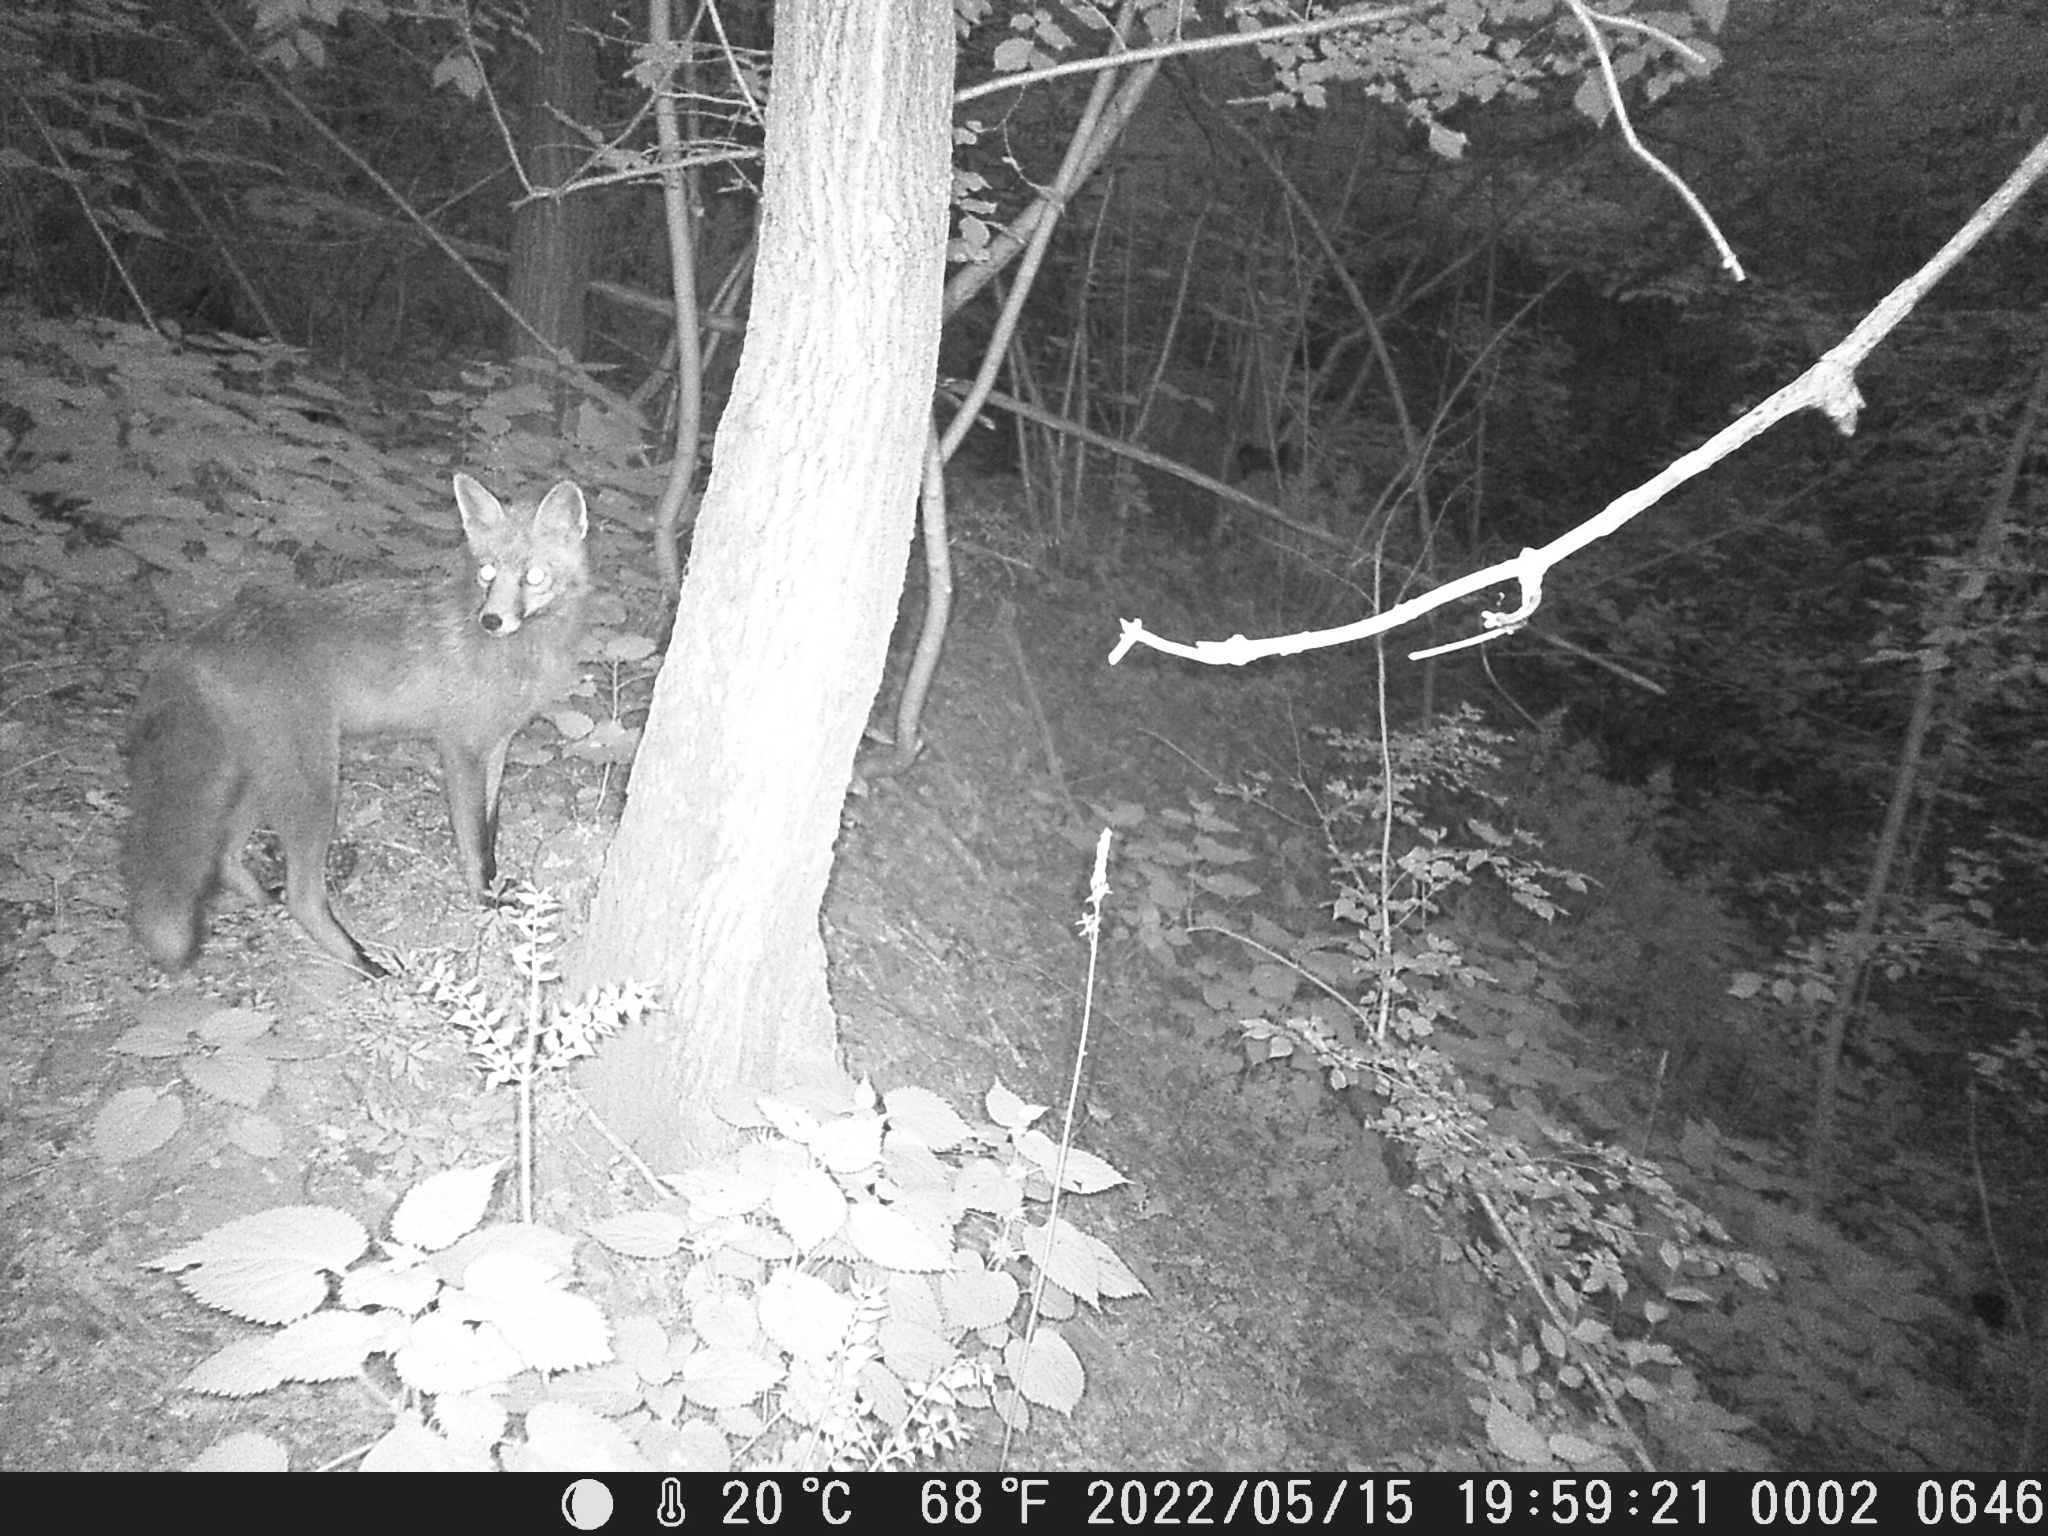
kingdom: Animalia
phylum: Chordata
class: Mammalia
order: Carnivora
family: Canidae
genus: Vulpes
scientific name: Vulpes vulpes
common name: Red fox
